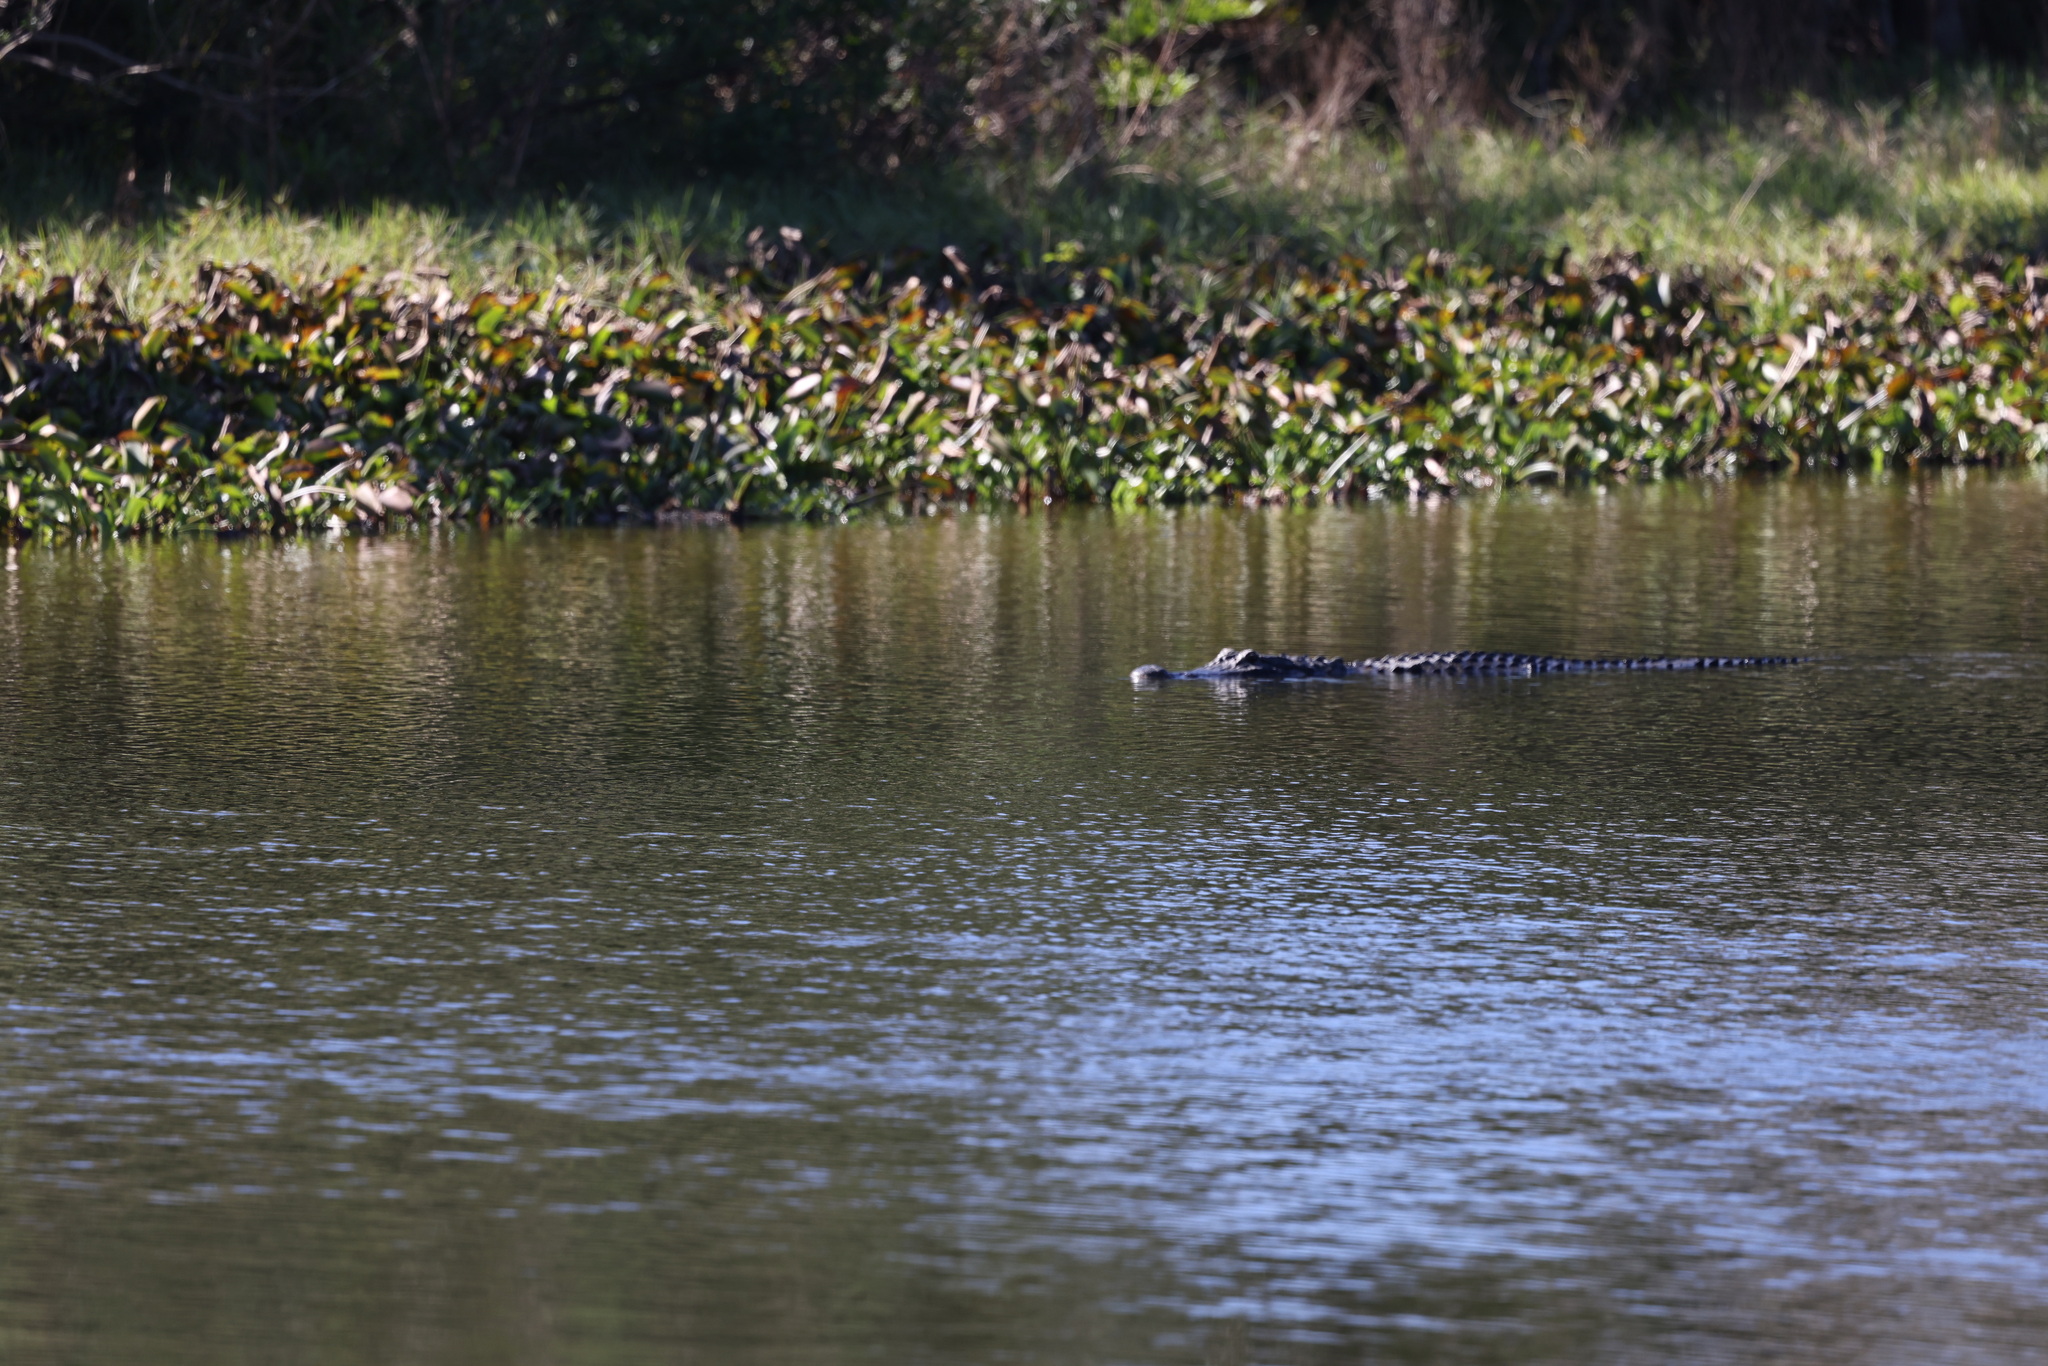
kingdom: Animalia
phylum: Chordata
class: Crocodylia
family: Alligatoridae
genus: Alligator
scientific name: Alligator mississippiensis
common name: American alligator
